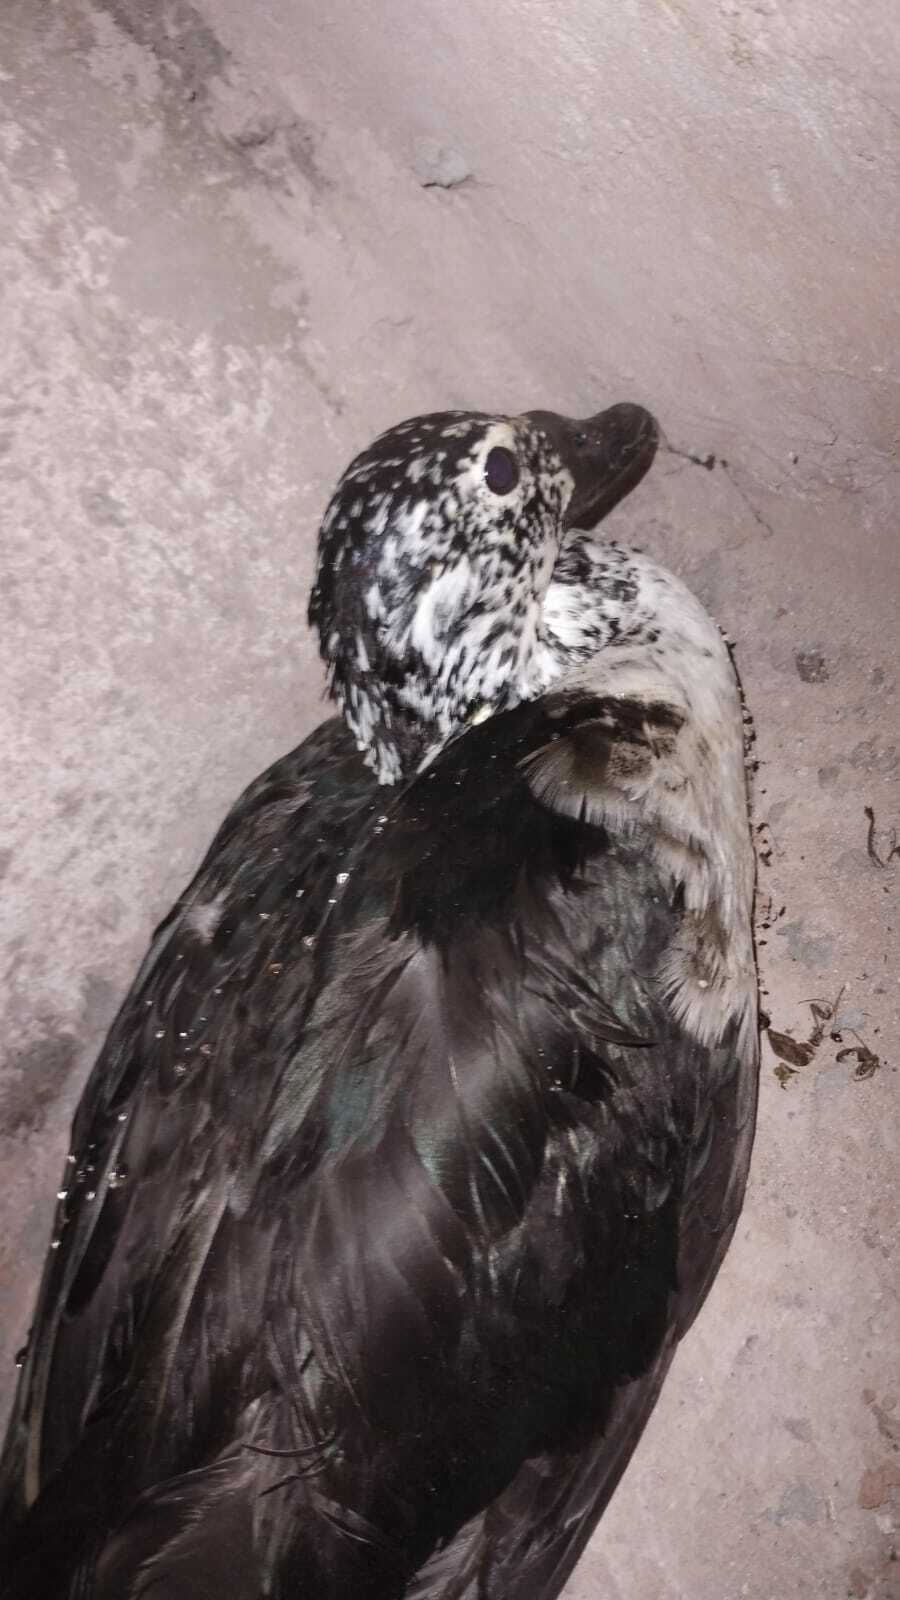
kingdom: Animalia
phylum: Chordata
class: Aves
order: Anseriformes
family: Anatidae
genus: Sarkidiornis
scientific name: Sarkidiornis sylvicola
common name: Comb duck
